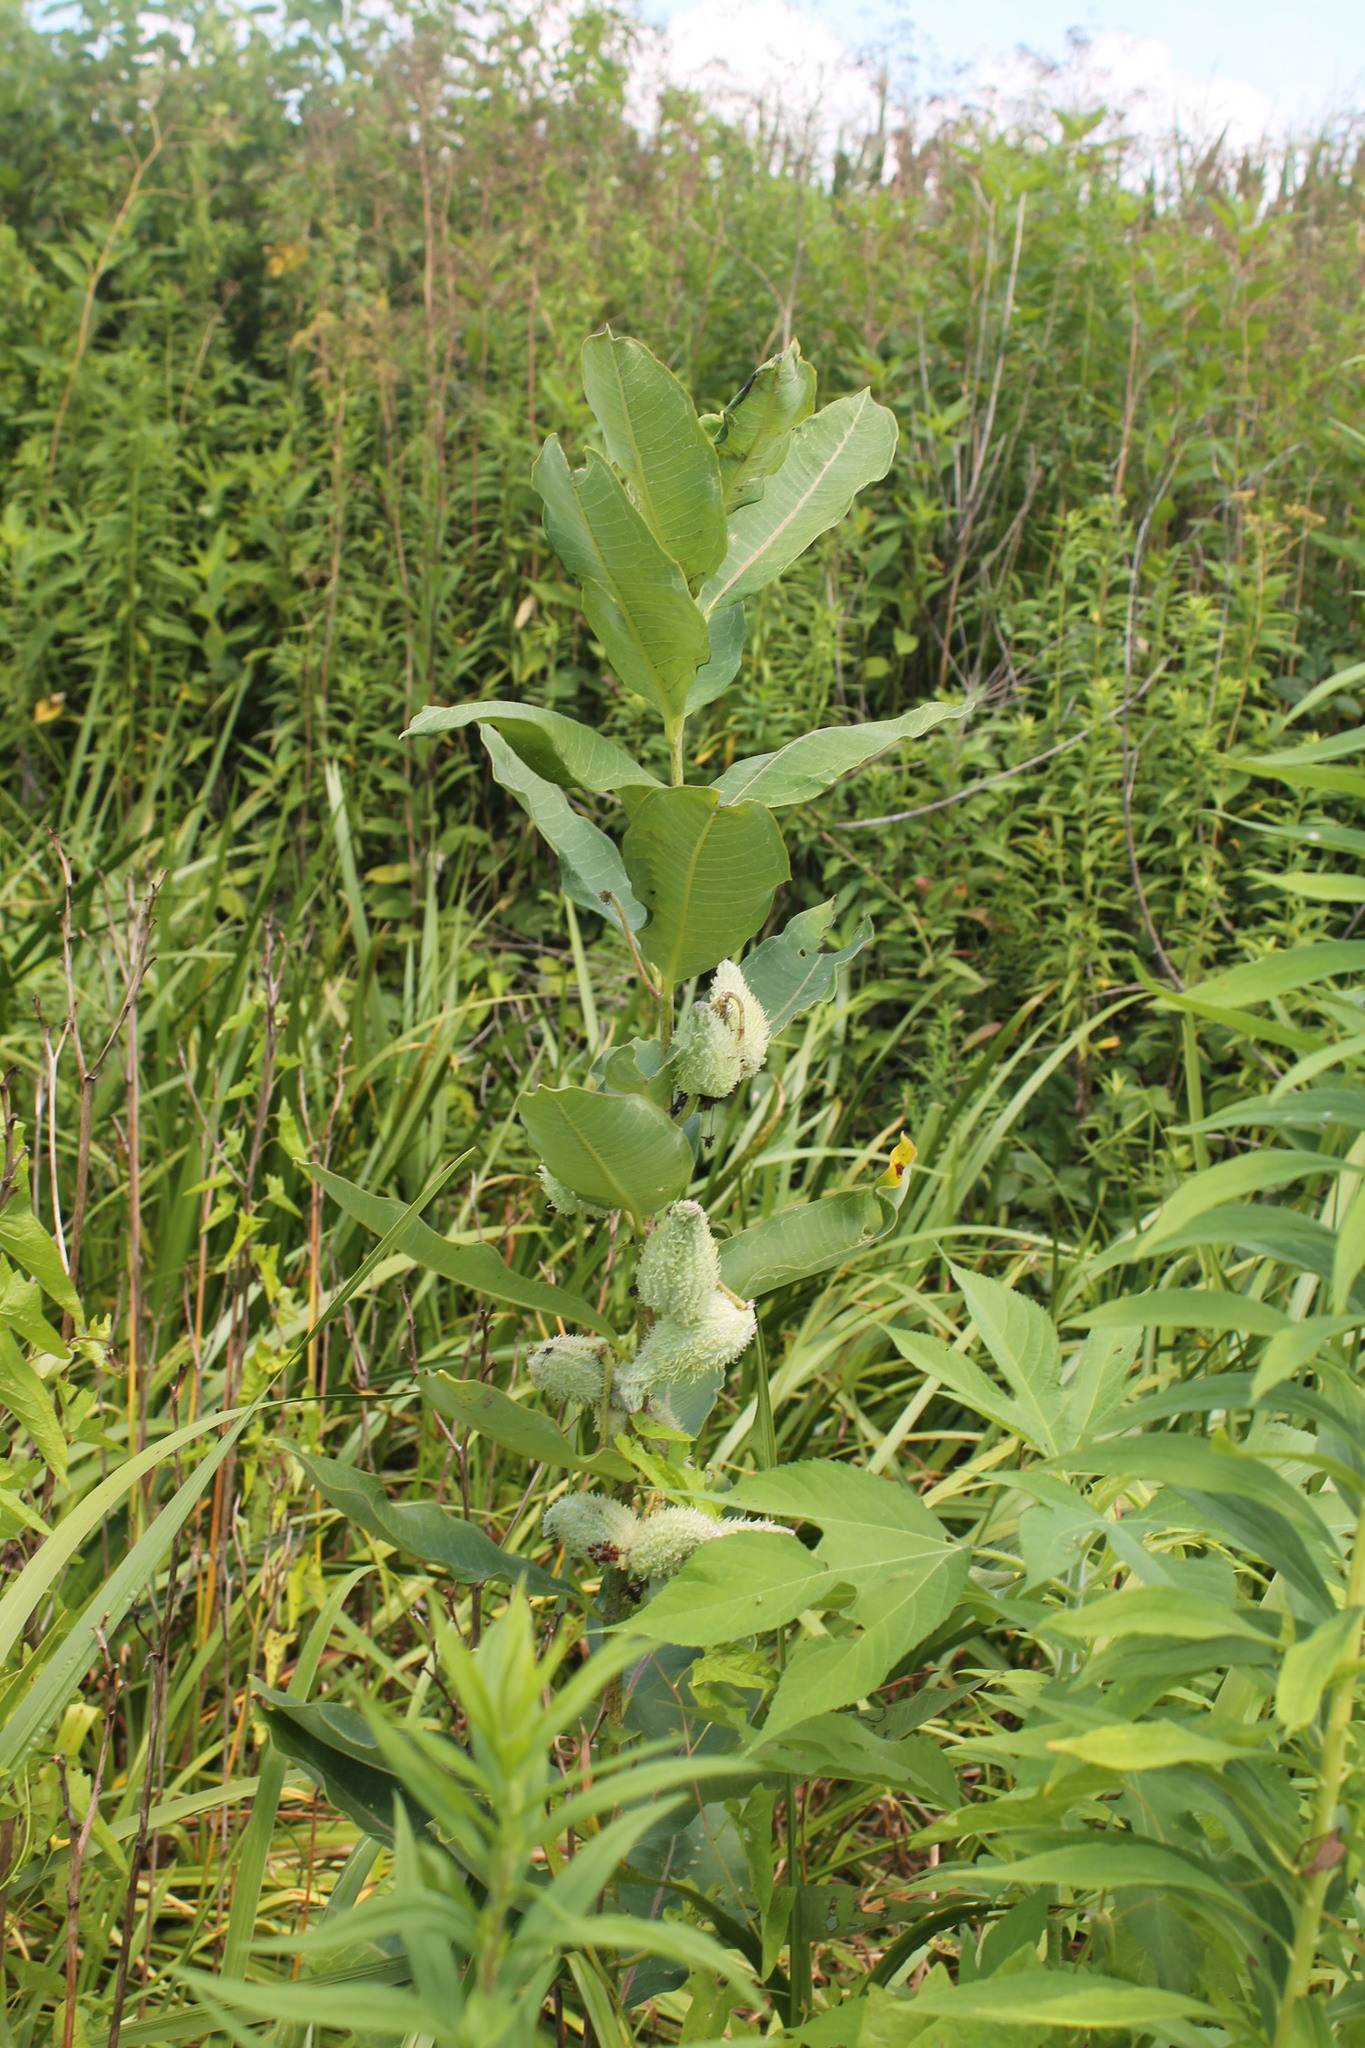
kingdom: Plantae
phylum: Tracheophyta
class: Magnoliopsida
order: Gentianales
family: Apocynaceae
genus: Asclepias
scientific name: Asclepias syriaca
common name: Common milkweed
